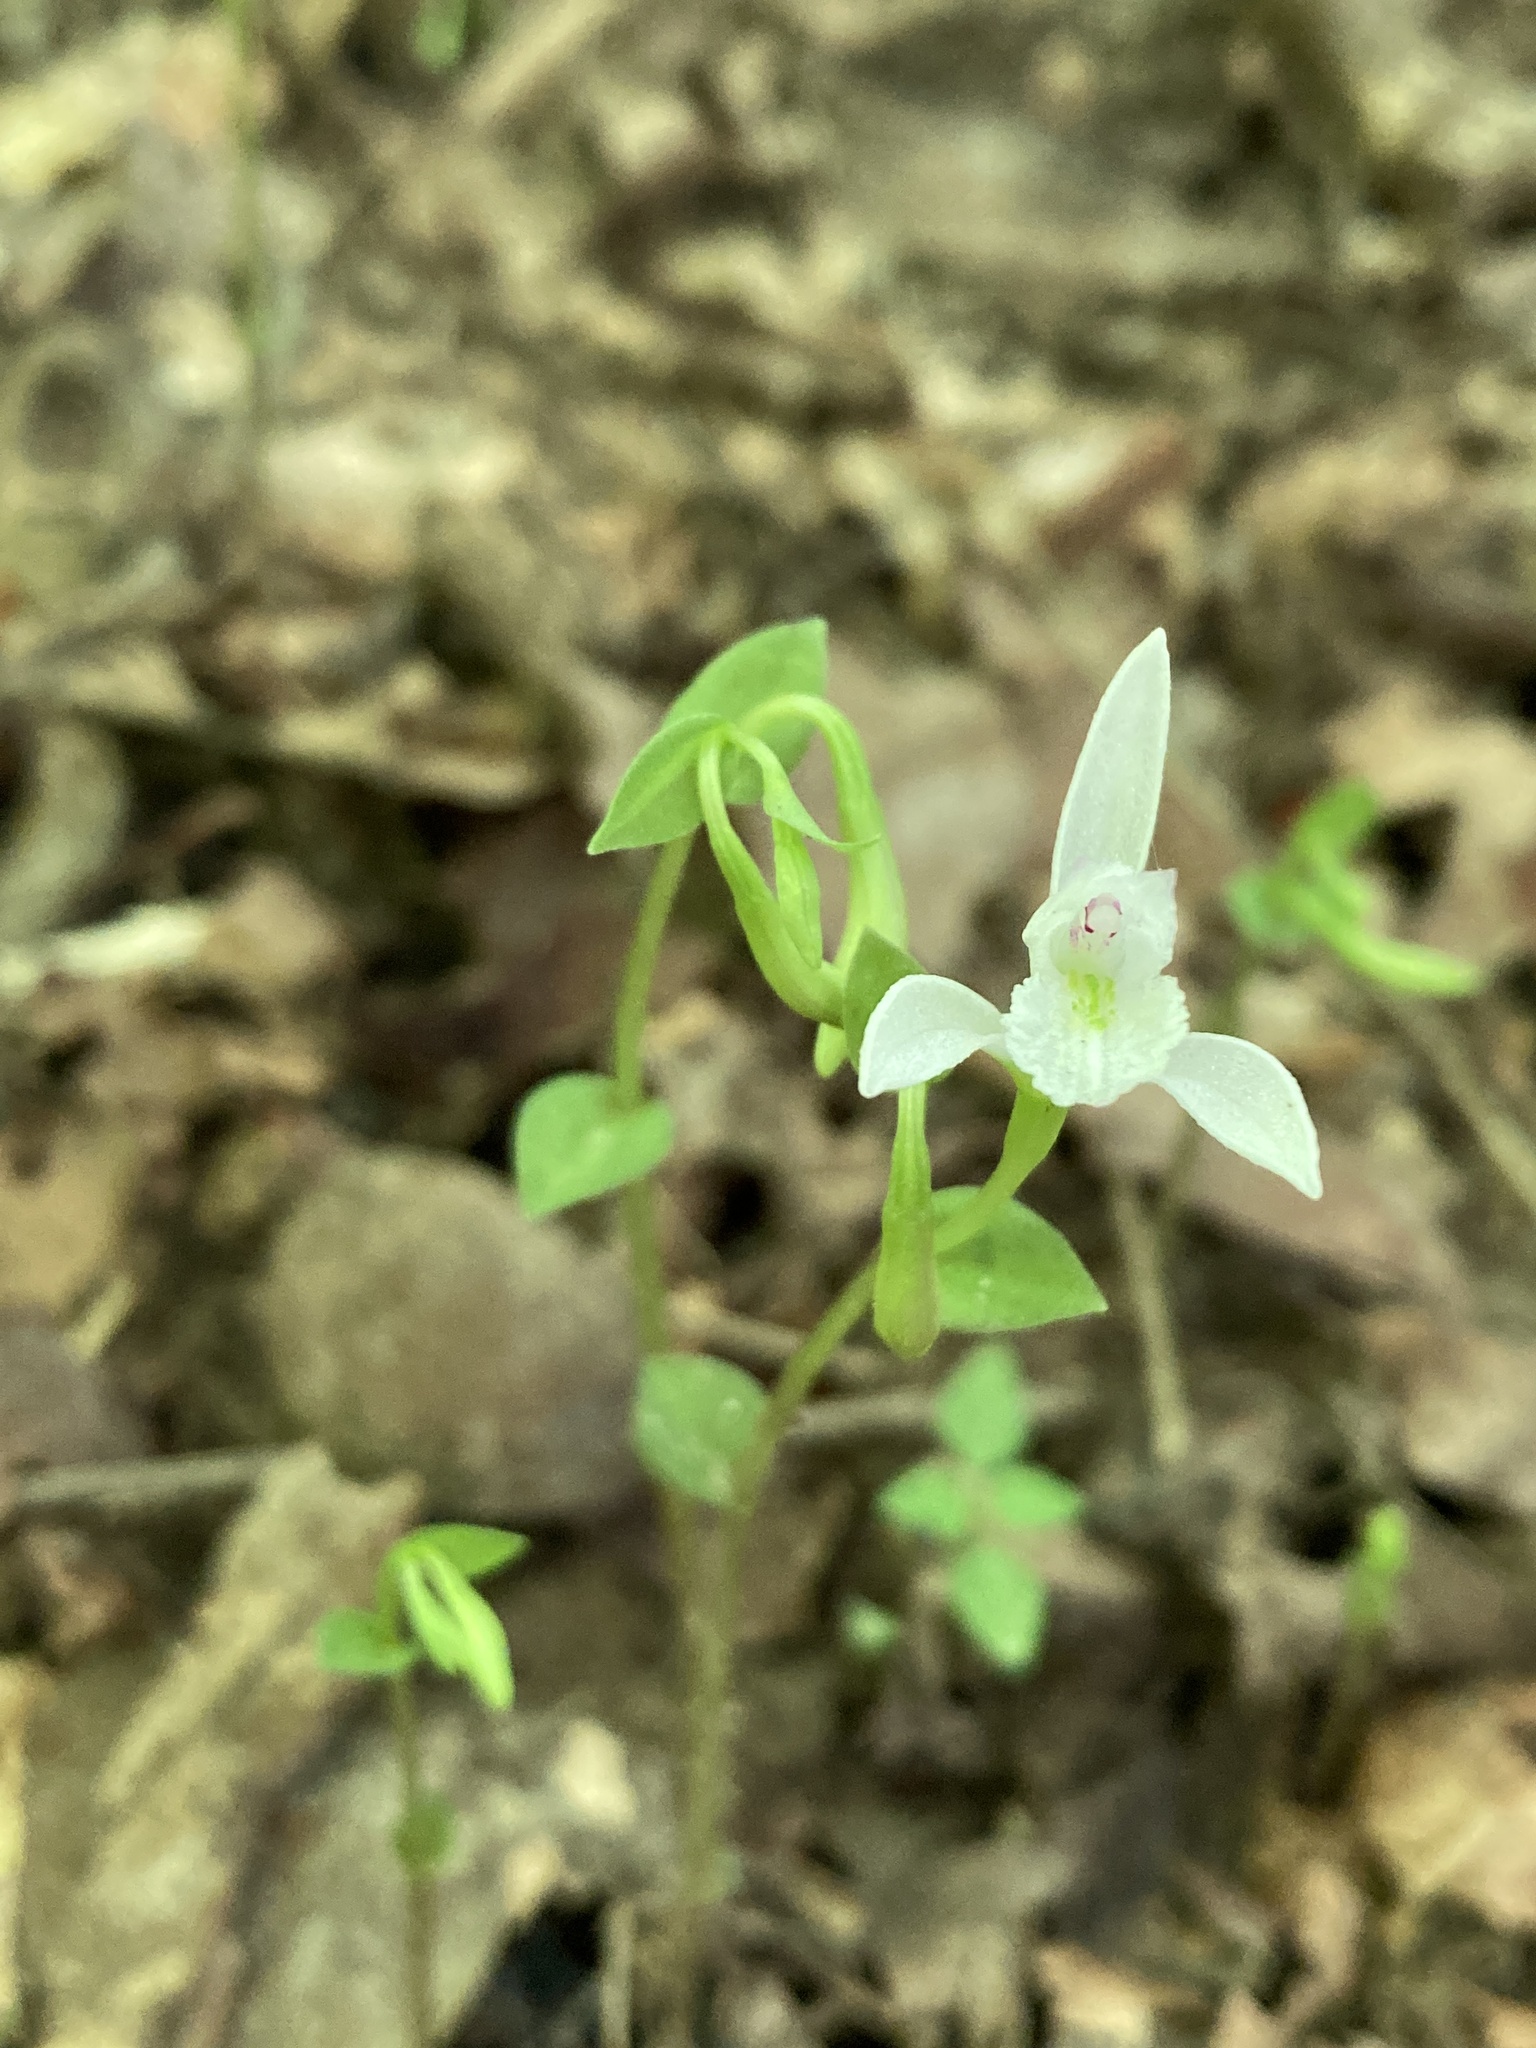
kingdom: Plantae
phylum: Tracheophyta
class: Liliopsida
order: Asparagales
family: Orchidaceae
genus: Triphora
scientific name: Triphora trianthophoros
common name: Three birds orchid
